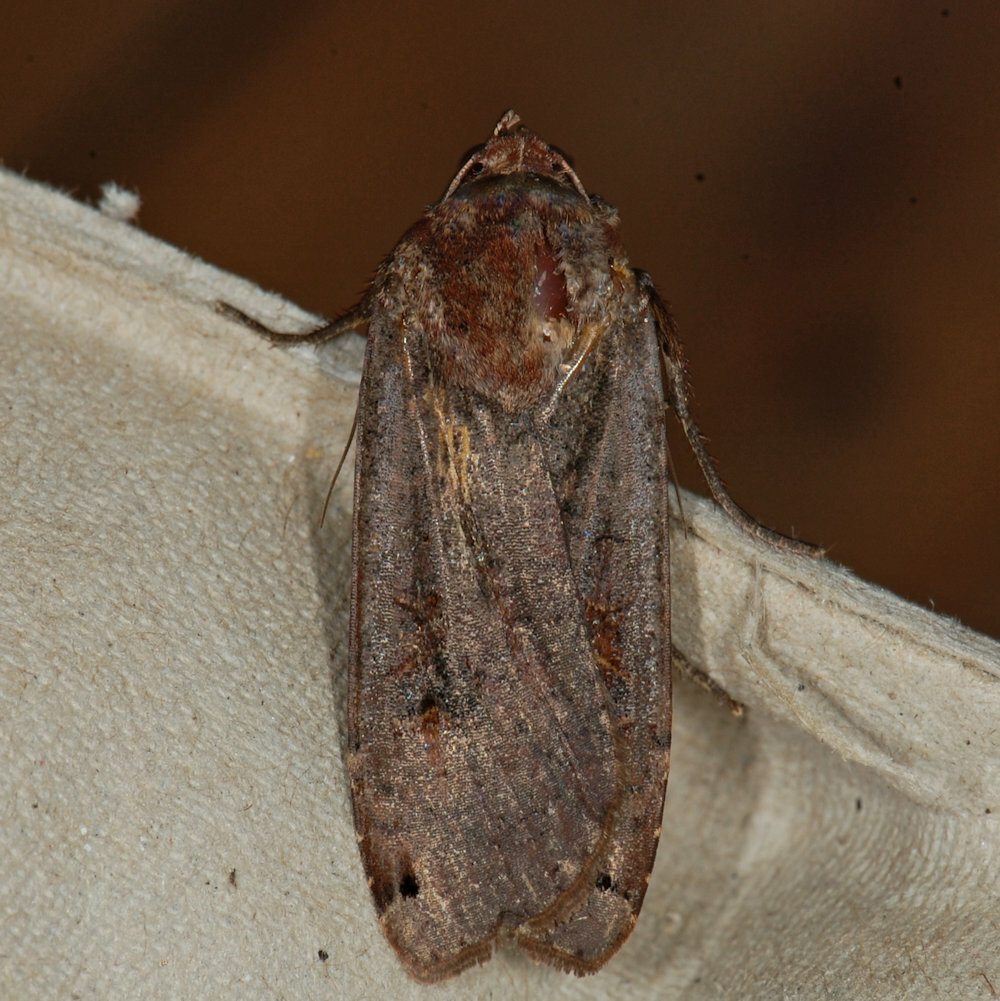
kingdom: Animalia
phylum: Arthropoda
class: Insecta
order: Lepidoptera
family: Noctuidae
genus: Noctua
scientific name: Noctua pronuba
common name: Large yellow underwing
